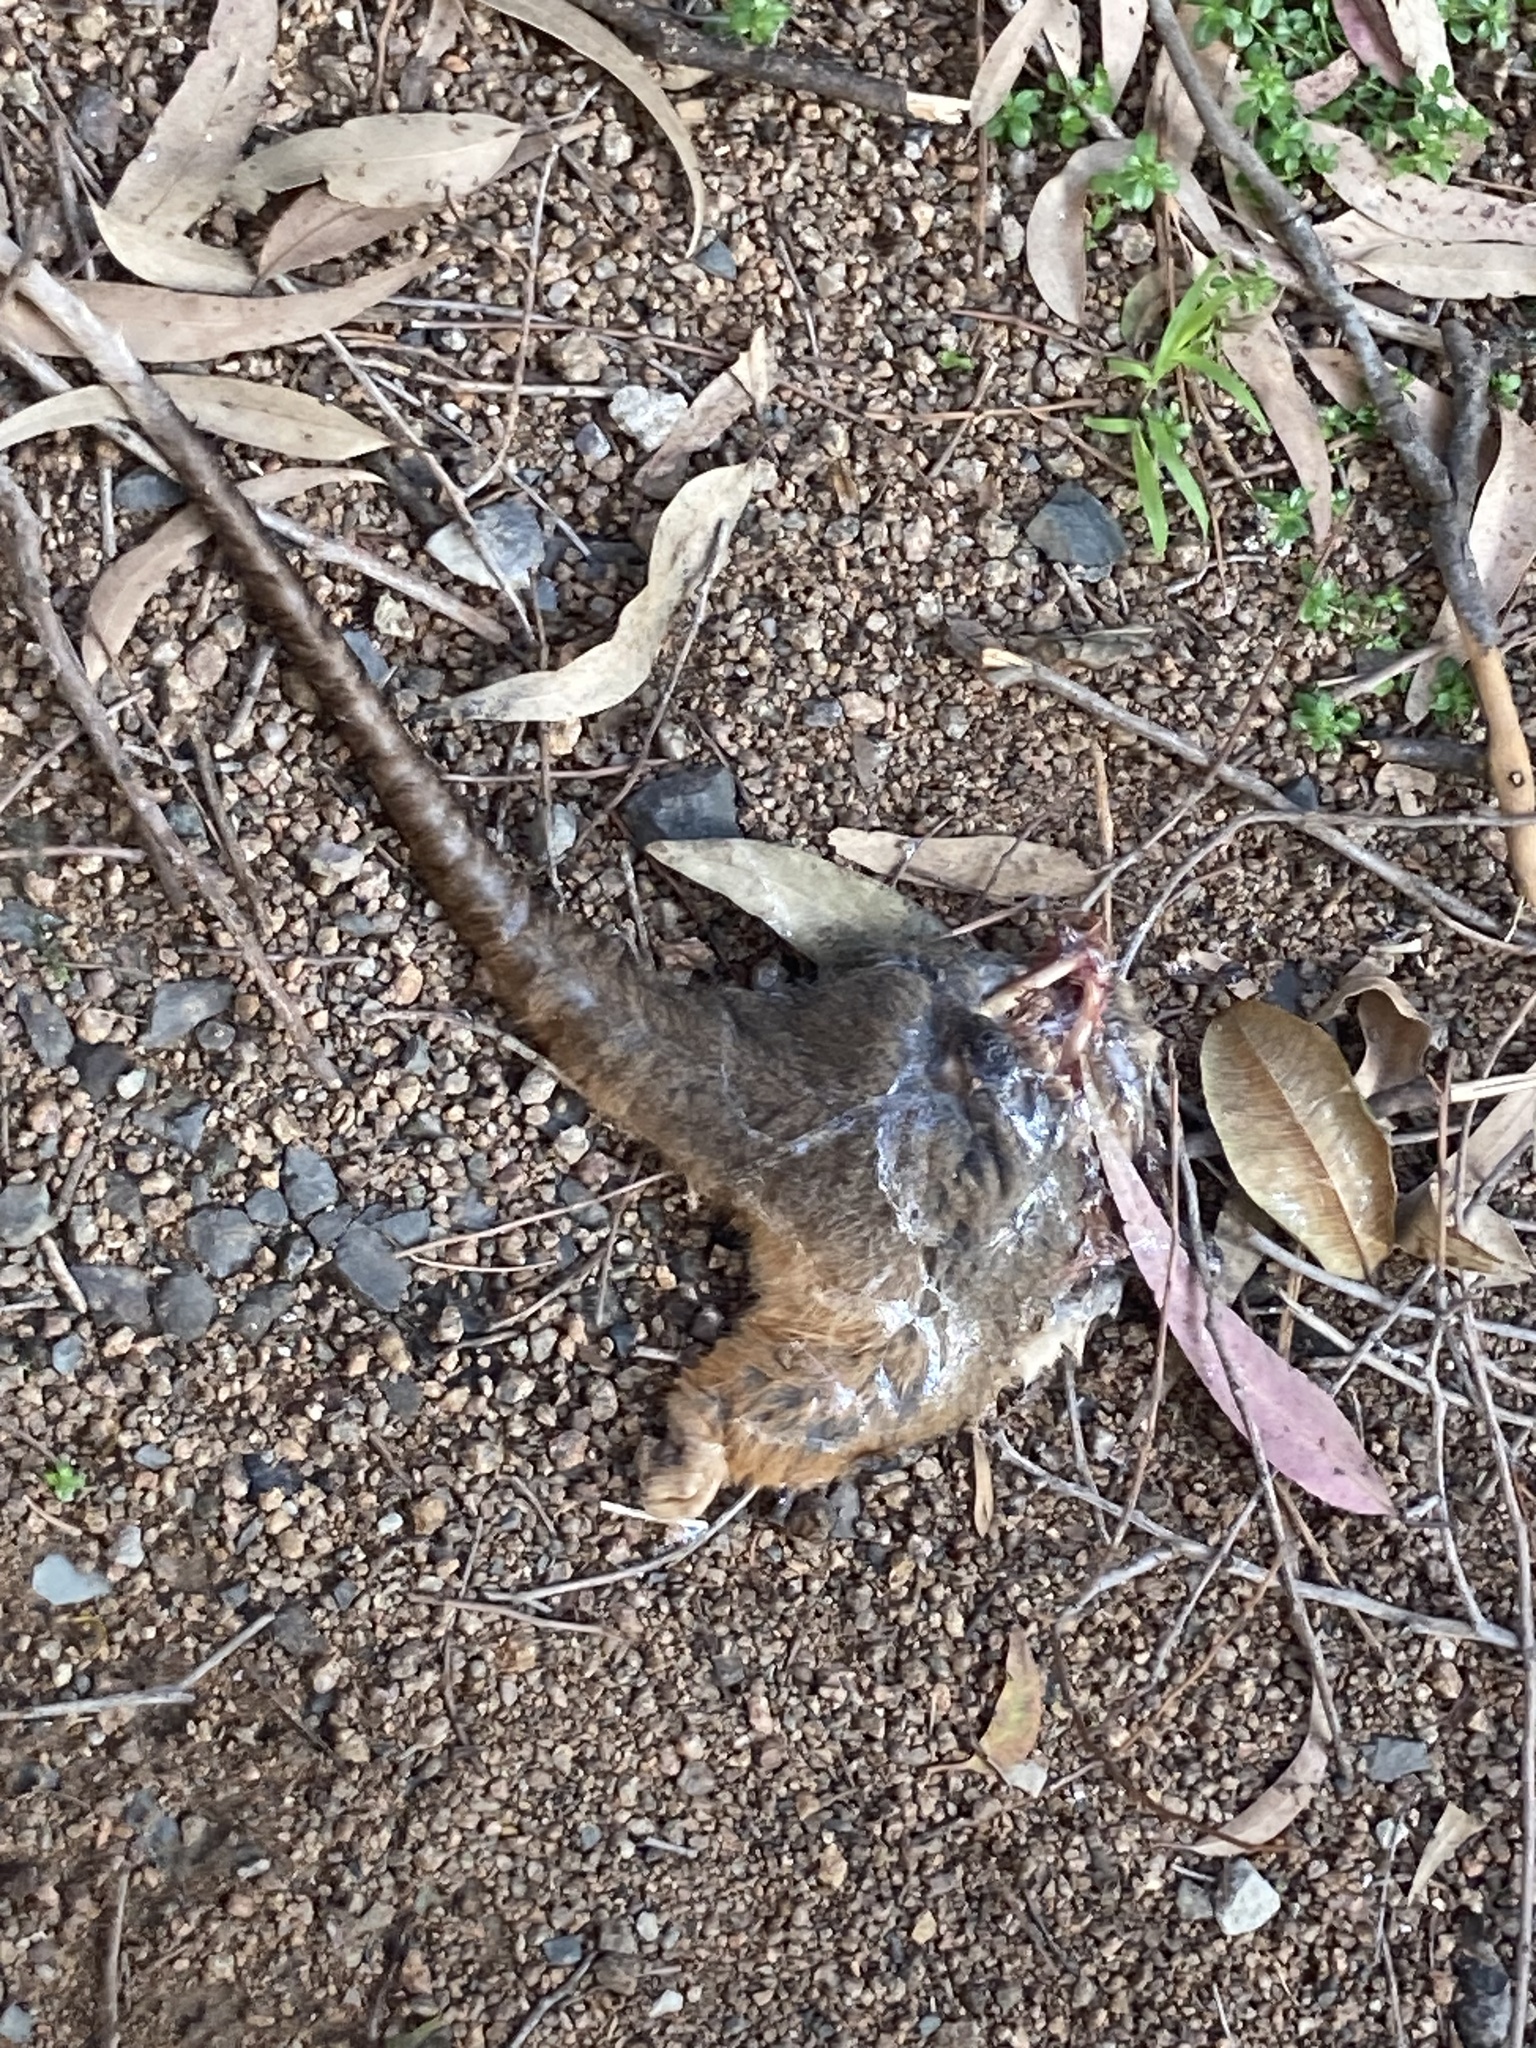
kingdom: Animalia
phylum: Chordata
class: Mammalia
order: Diprotodontia
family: Pseudocheiridae
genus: Pseudocheirus
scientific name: Pseudocheirus peregrinus
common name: Common ringtail possum
